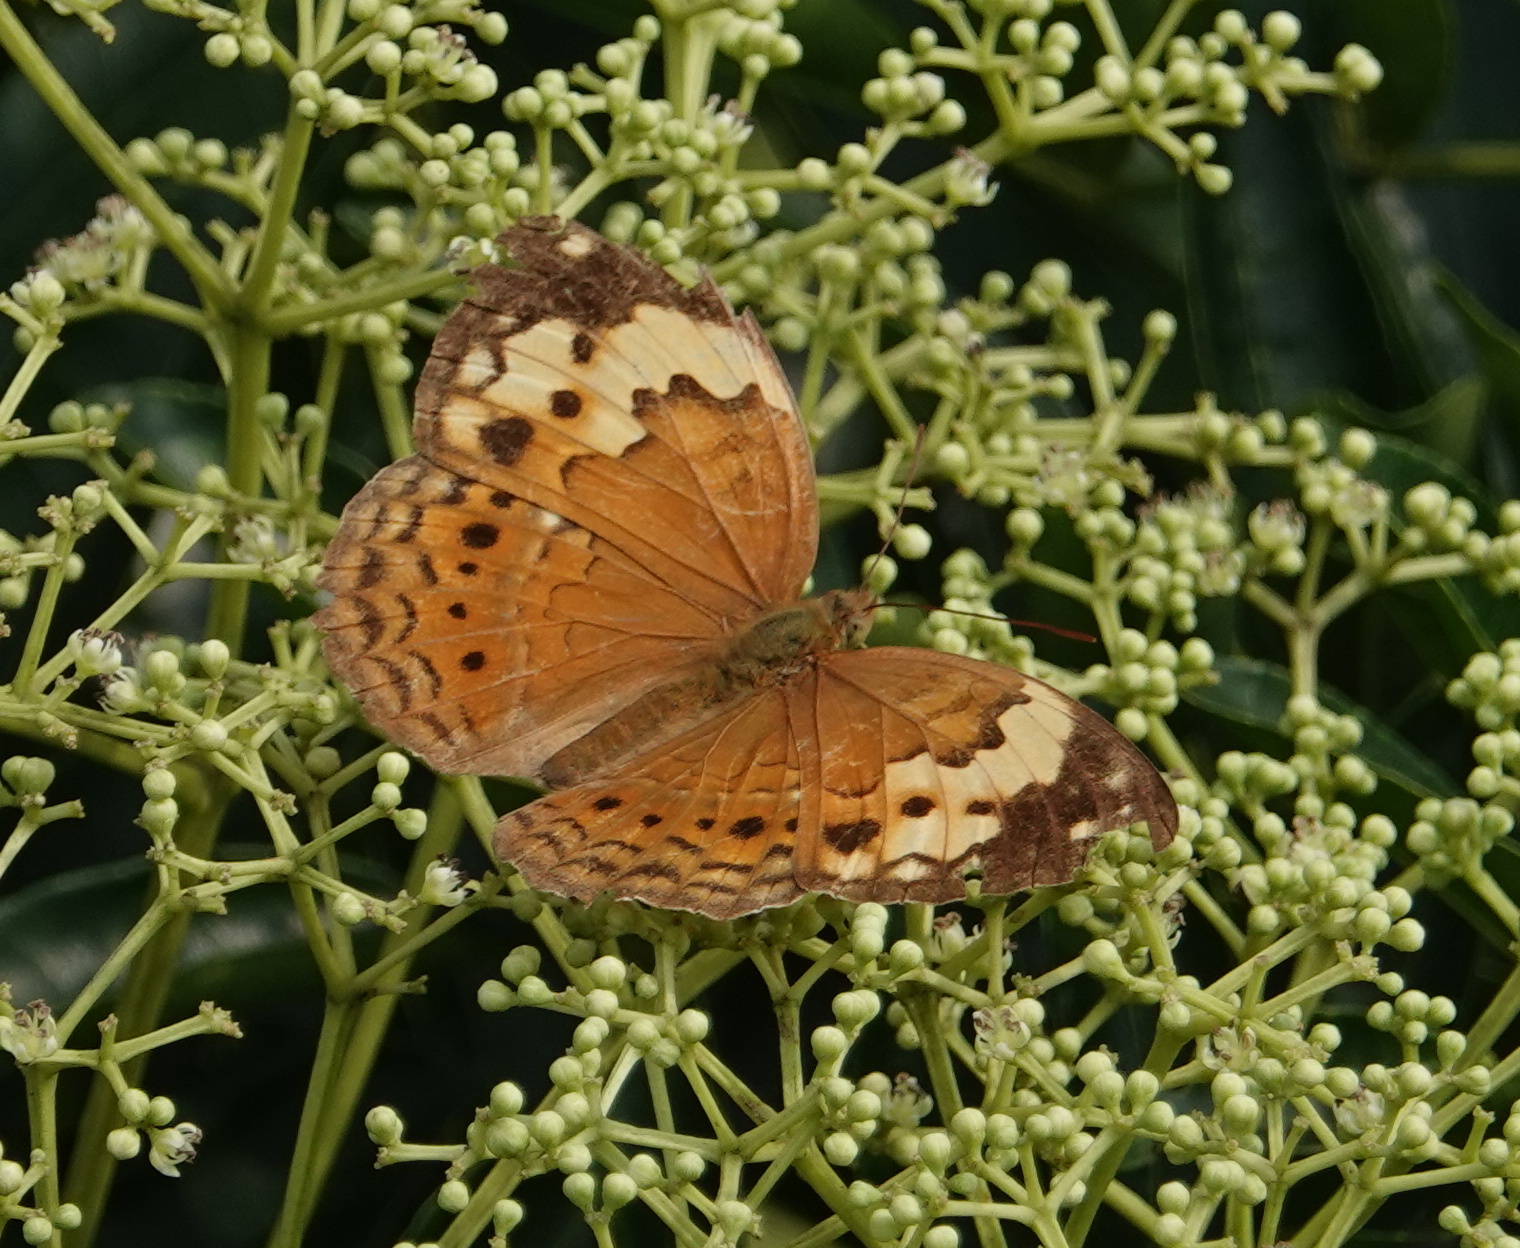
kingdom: Animalia
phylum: Arthropoda
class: Insecta
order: Lepidoptera
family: Nymphalidae
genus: Cupha
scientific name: Cupha erymanthis
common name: Rustic
